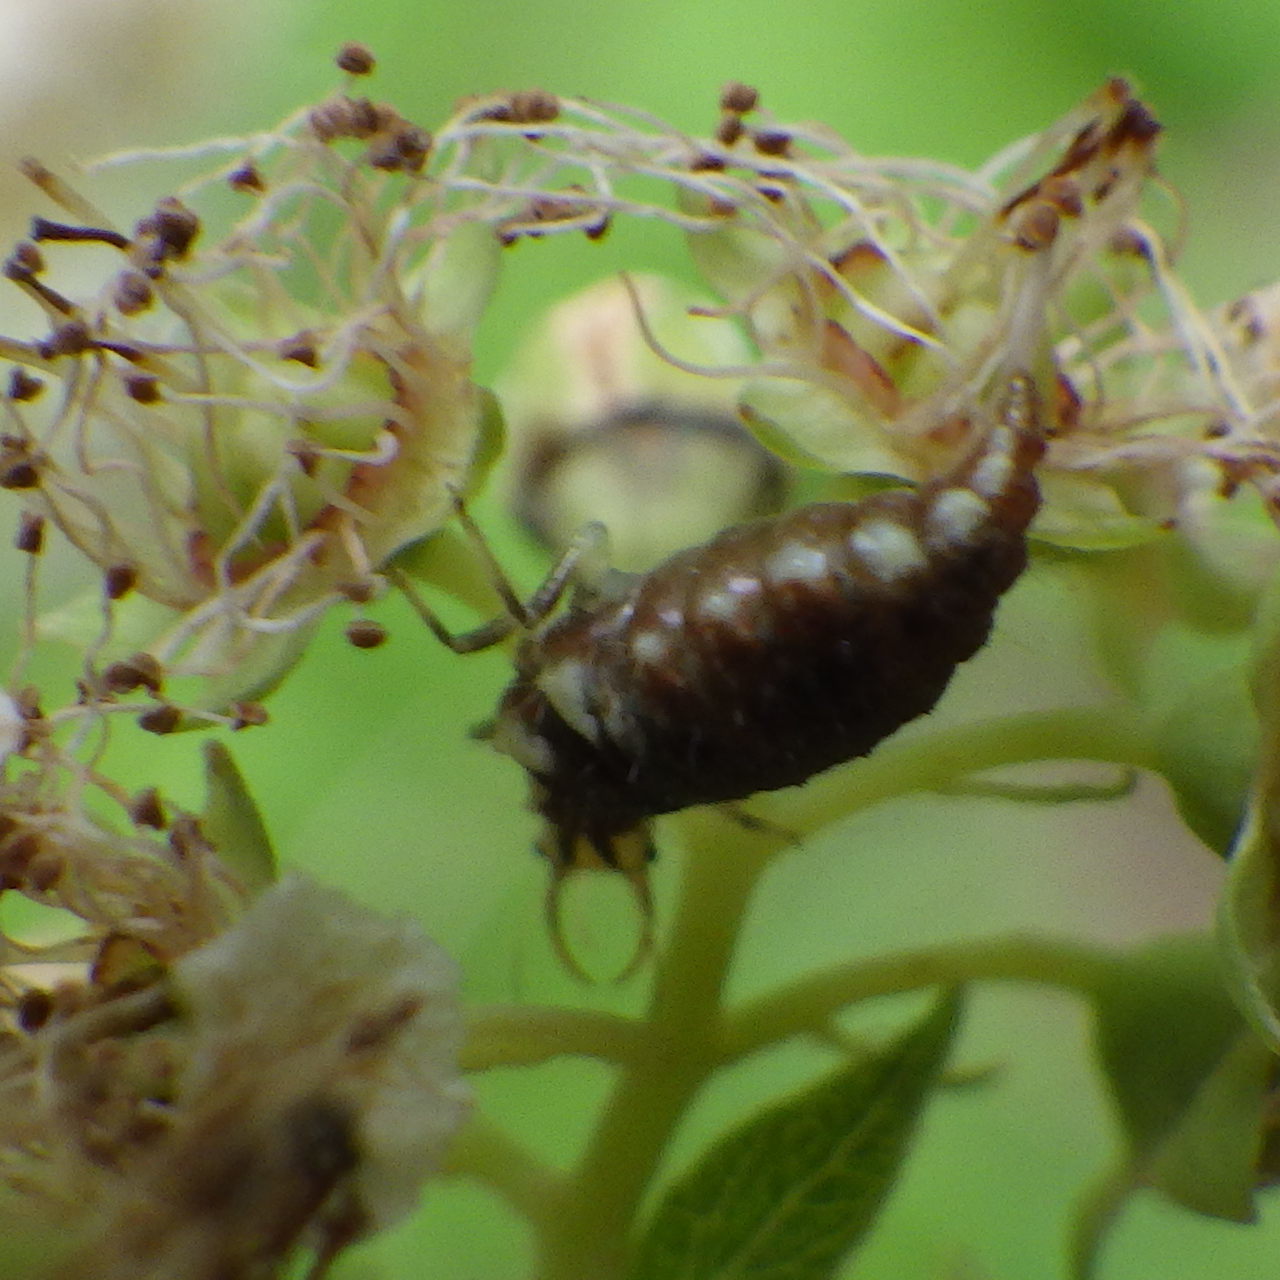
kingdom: Animalia
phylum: Arthropoda
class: Insecta
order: Neuroptera
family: Chrysopidae
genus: Chrysoperla
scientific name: Chrysoperla
